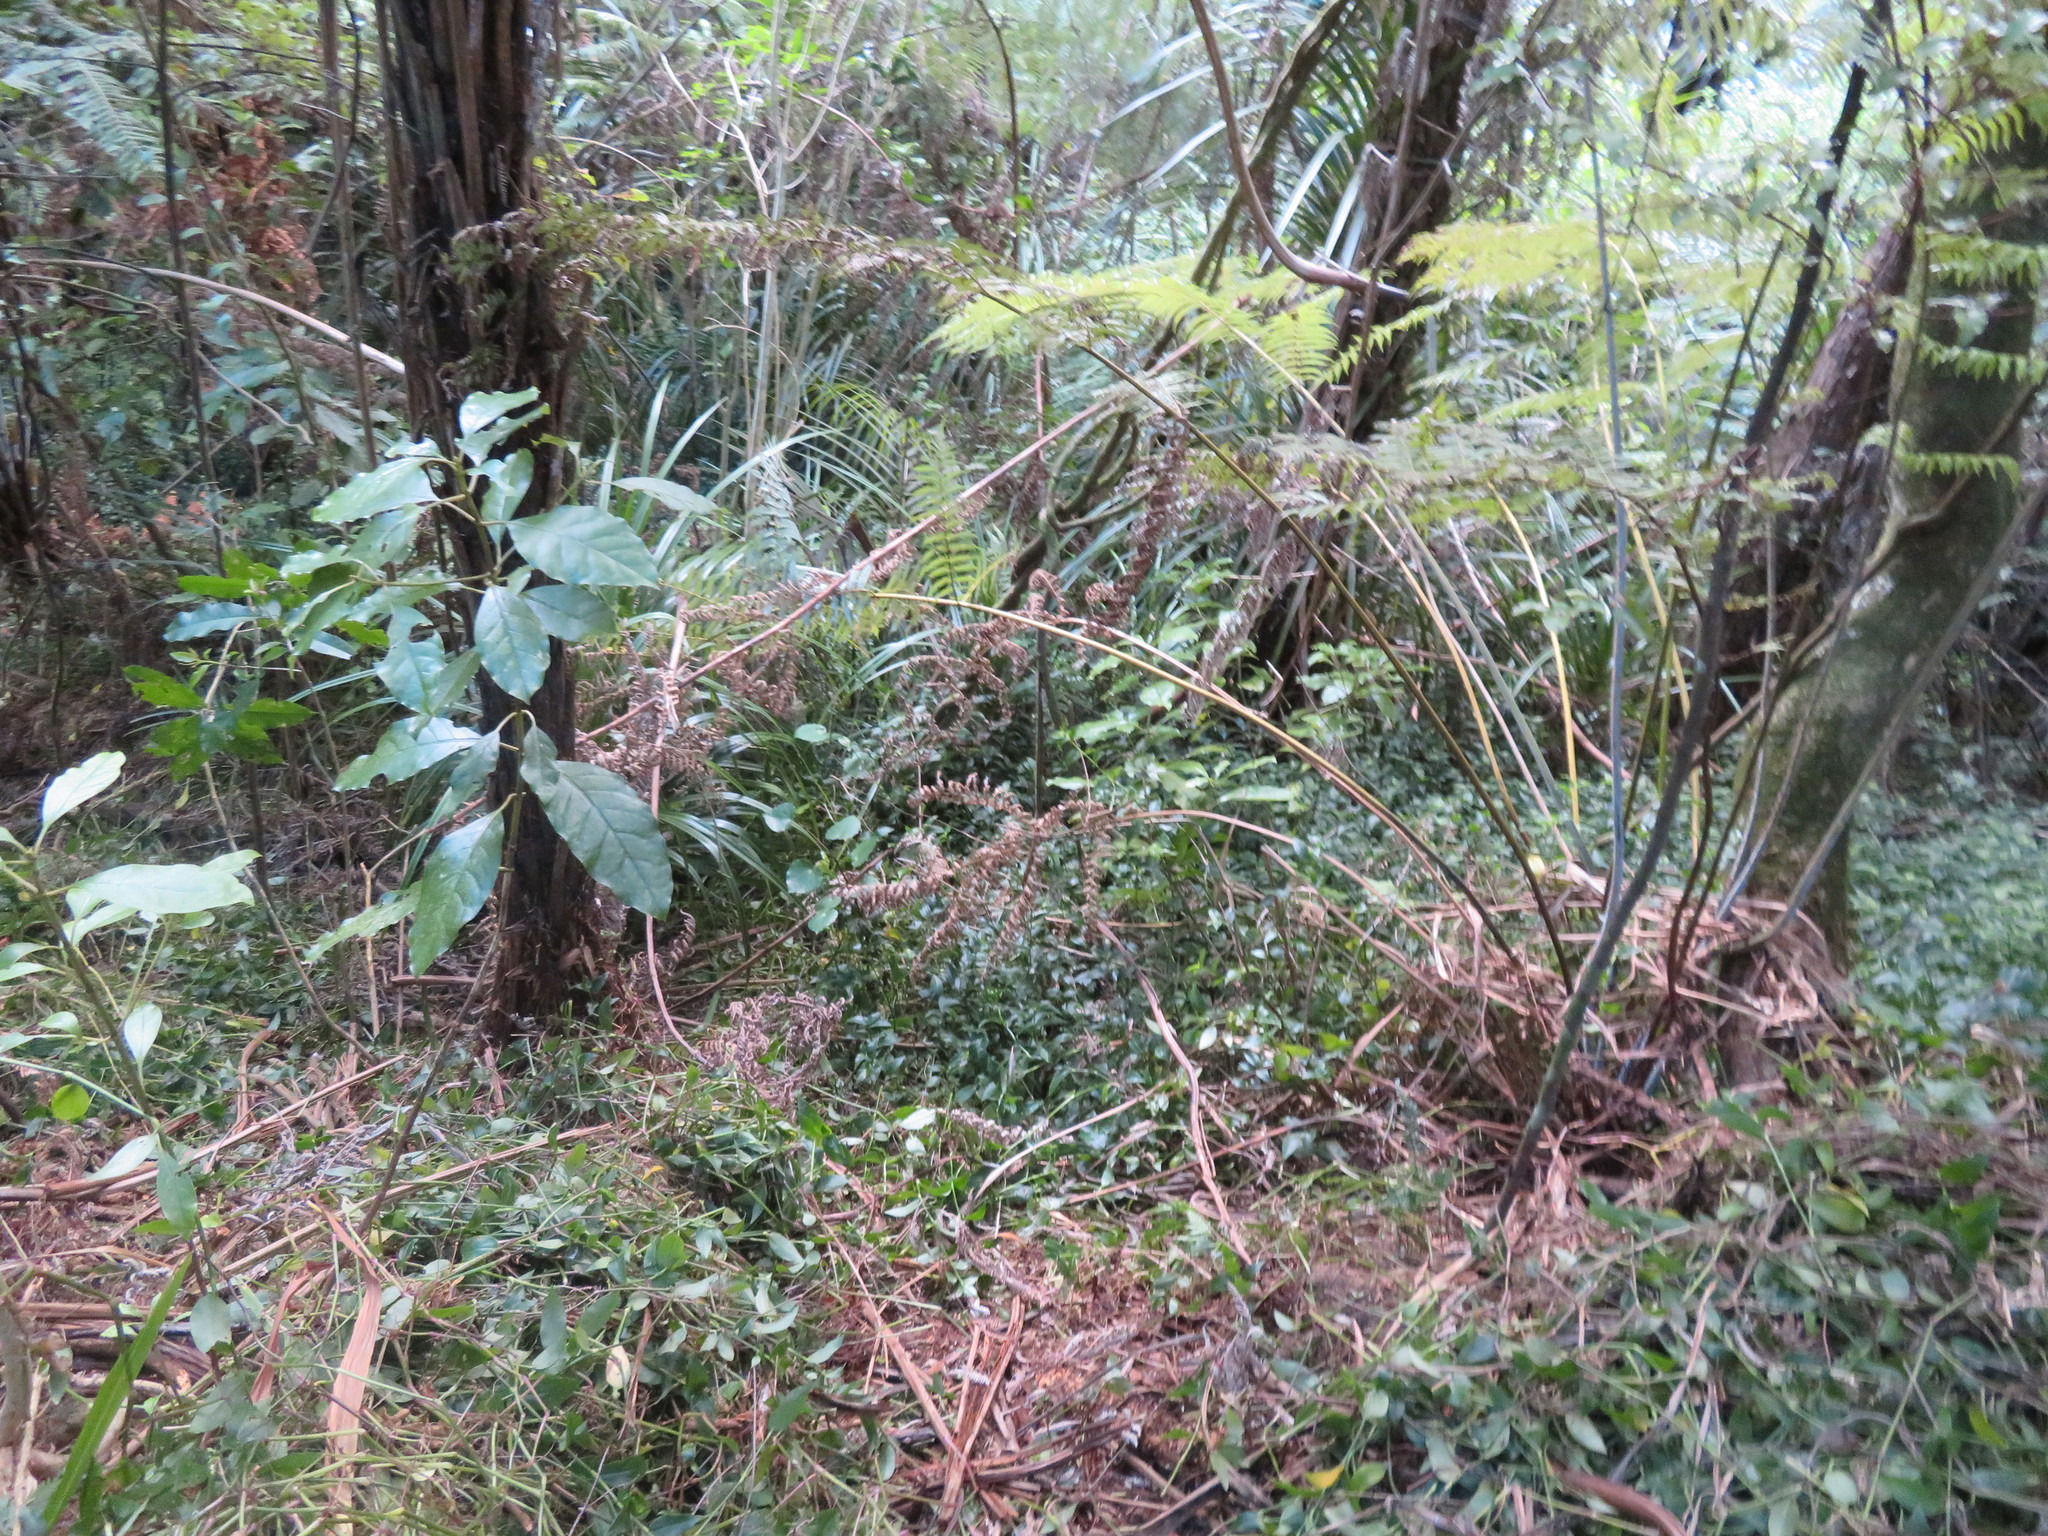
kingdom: Plantae
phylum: Tracheophyta
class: Magnoliopsida
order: Gentianales
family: Rubiaceae
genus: Coprosma
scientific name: Coprosma autumnalis
